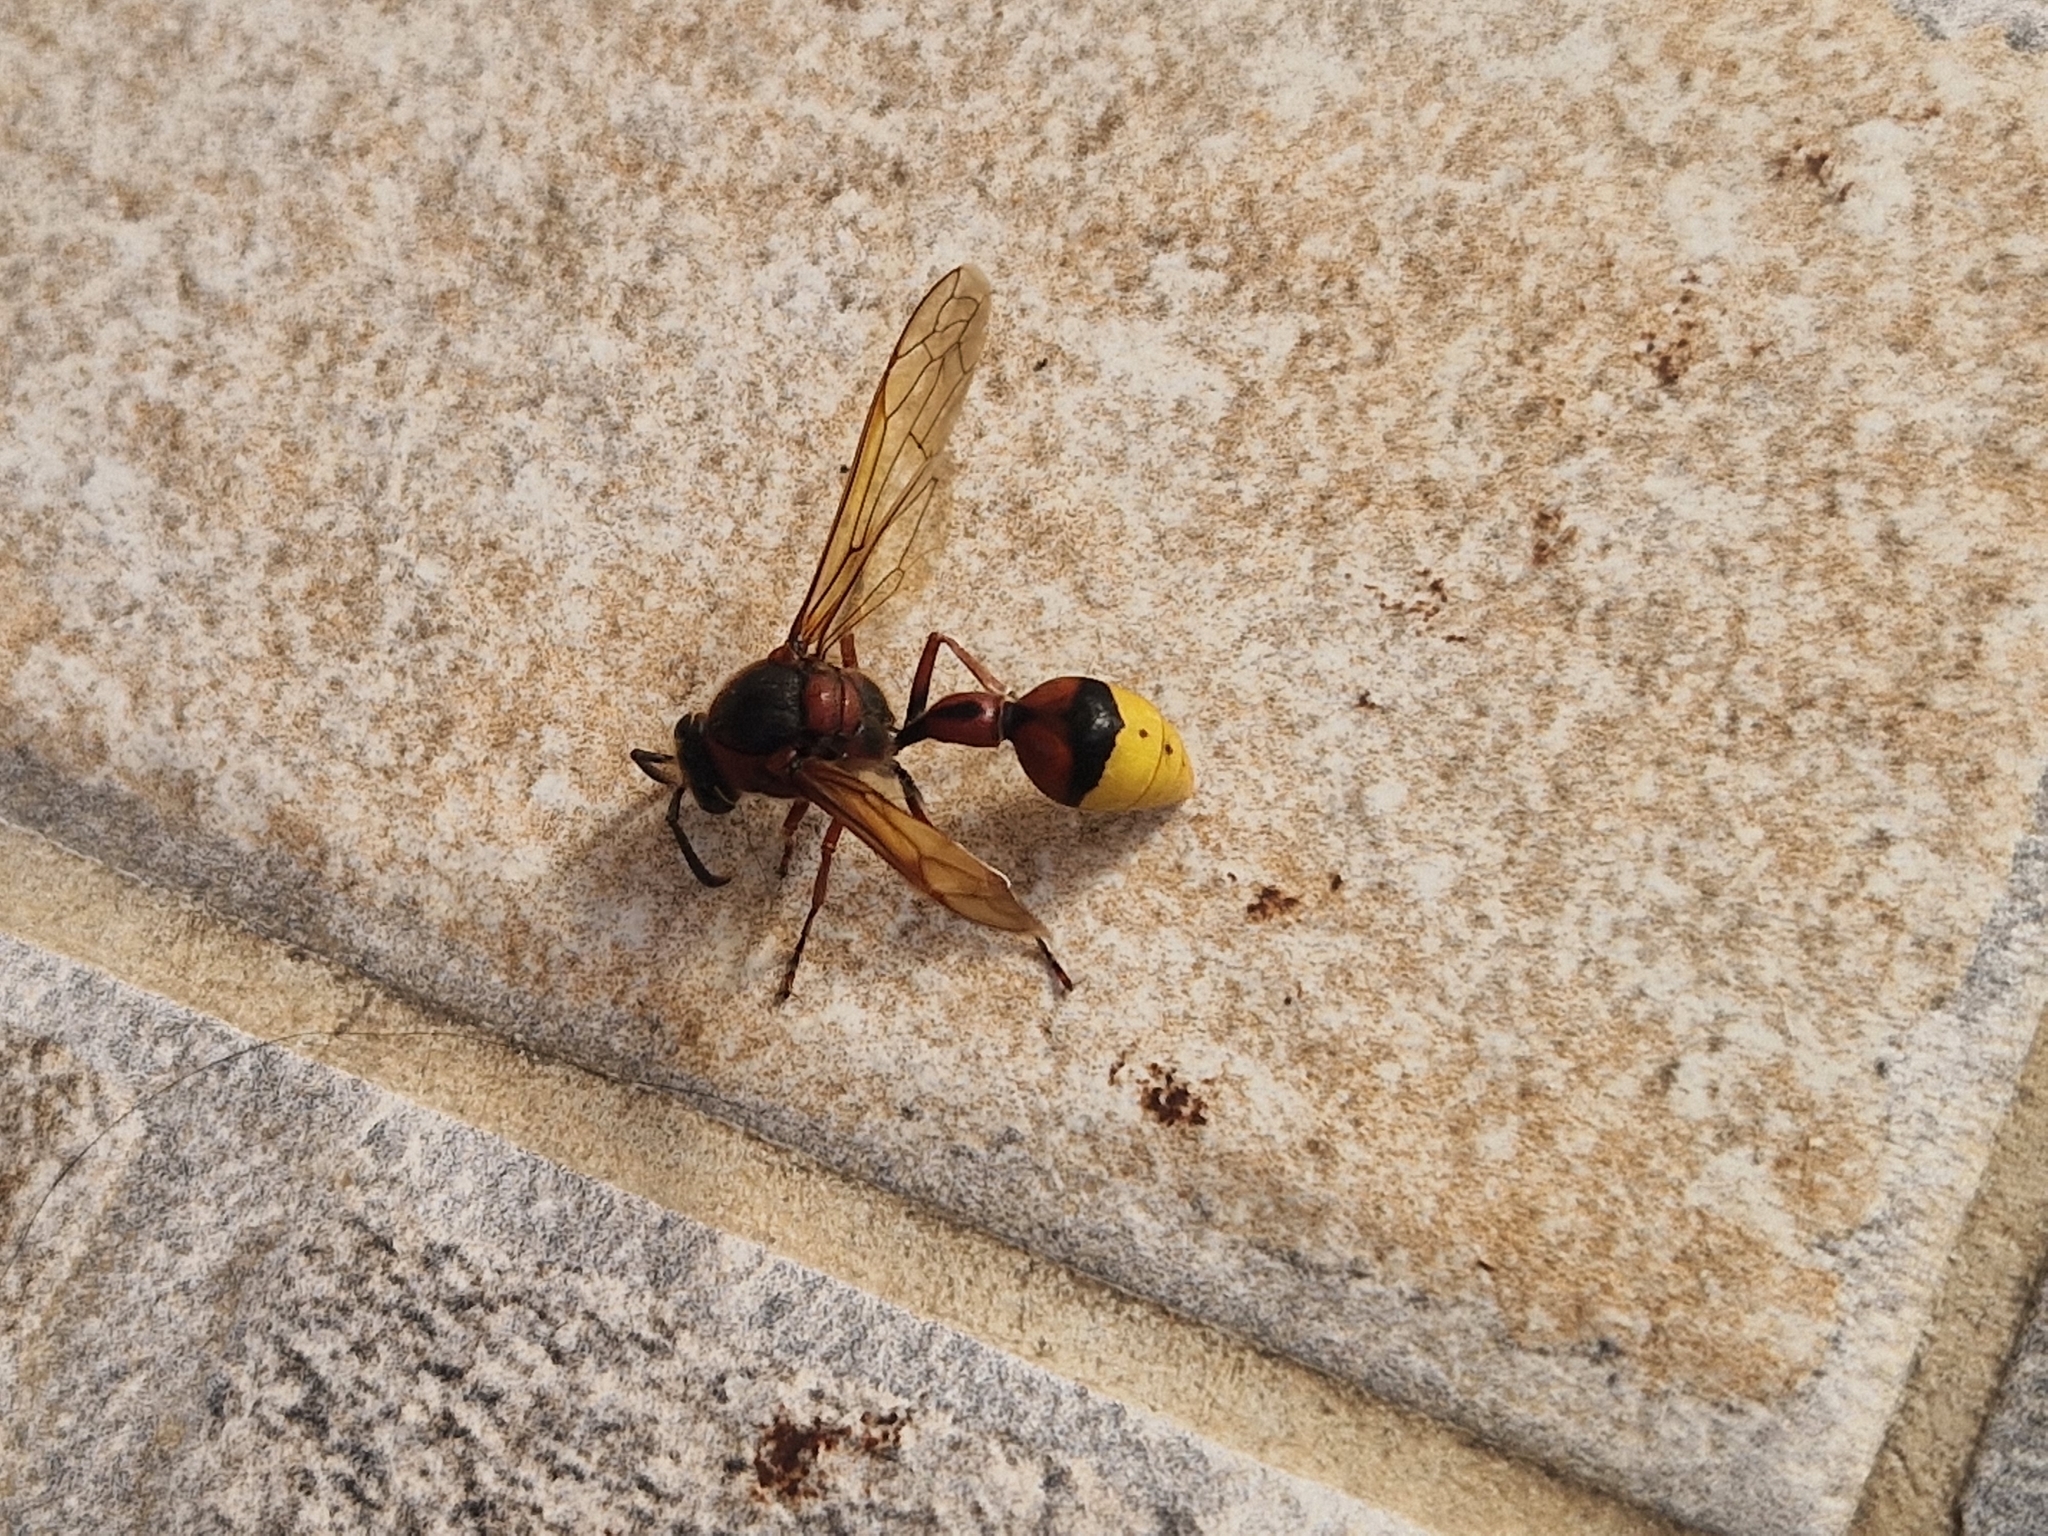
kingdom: Animalia
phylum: Arthropoda
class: Insecta
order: Hymenoptera
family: Eumenidae
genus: Delta
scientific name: Delta unguiculatum
